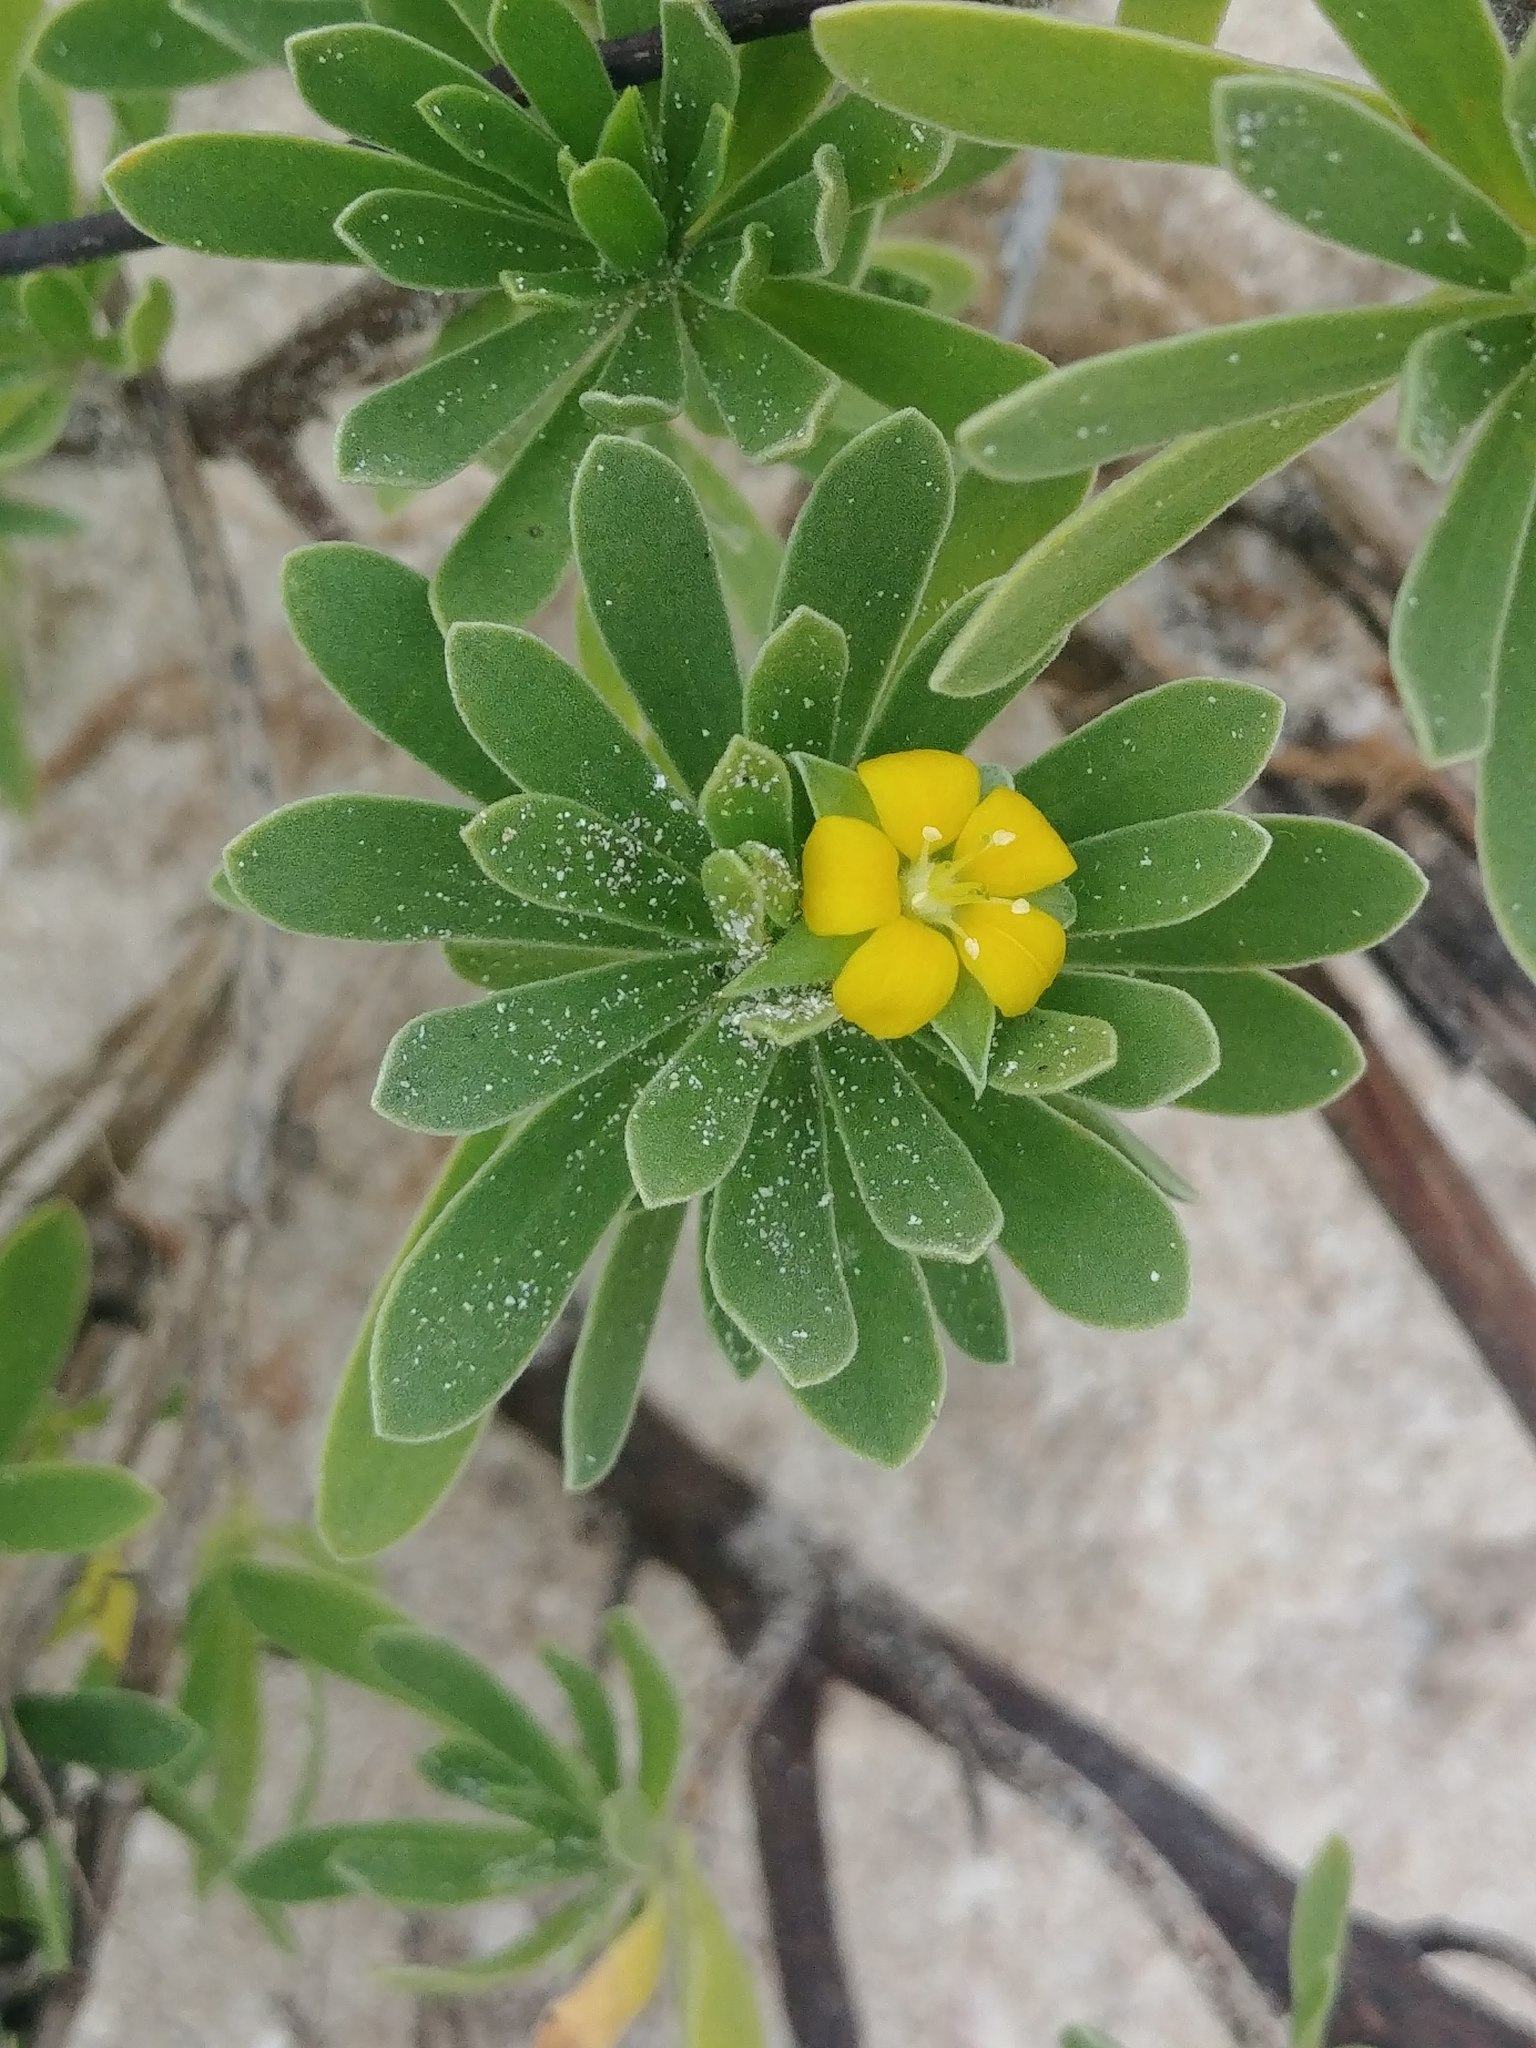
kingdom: Plantae
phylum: Tracheophyta
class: Magnoliopsida
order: Fabales
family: Surianaceae
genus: Suriana
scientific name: Suriana maritima
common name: Bay-cedar
